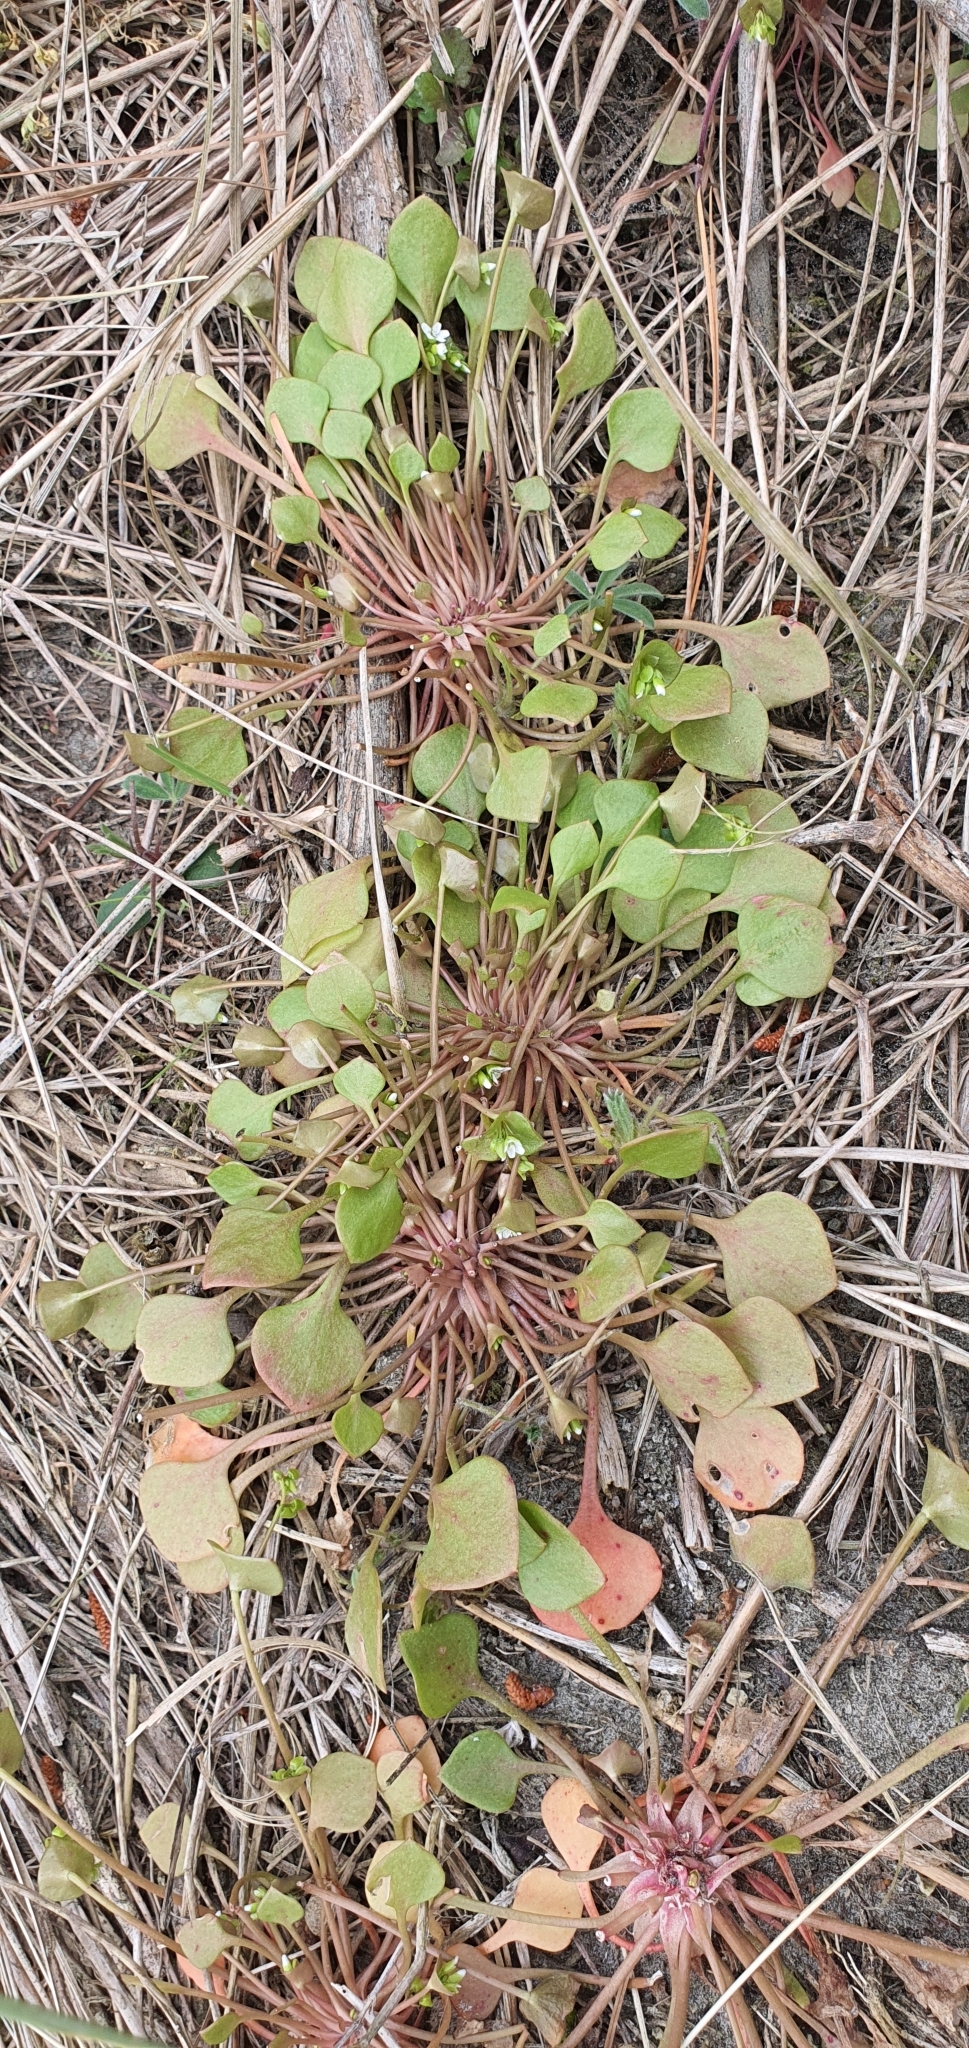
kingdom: Plantae
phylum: Tracheophyta
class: Magnoliopsida
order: Caryophyllales
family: Montiaceae
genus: Claytonia
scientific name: Claytonia perfoliata
